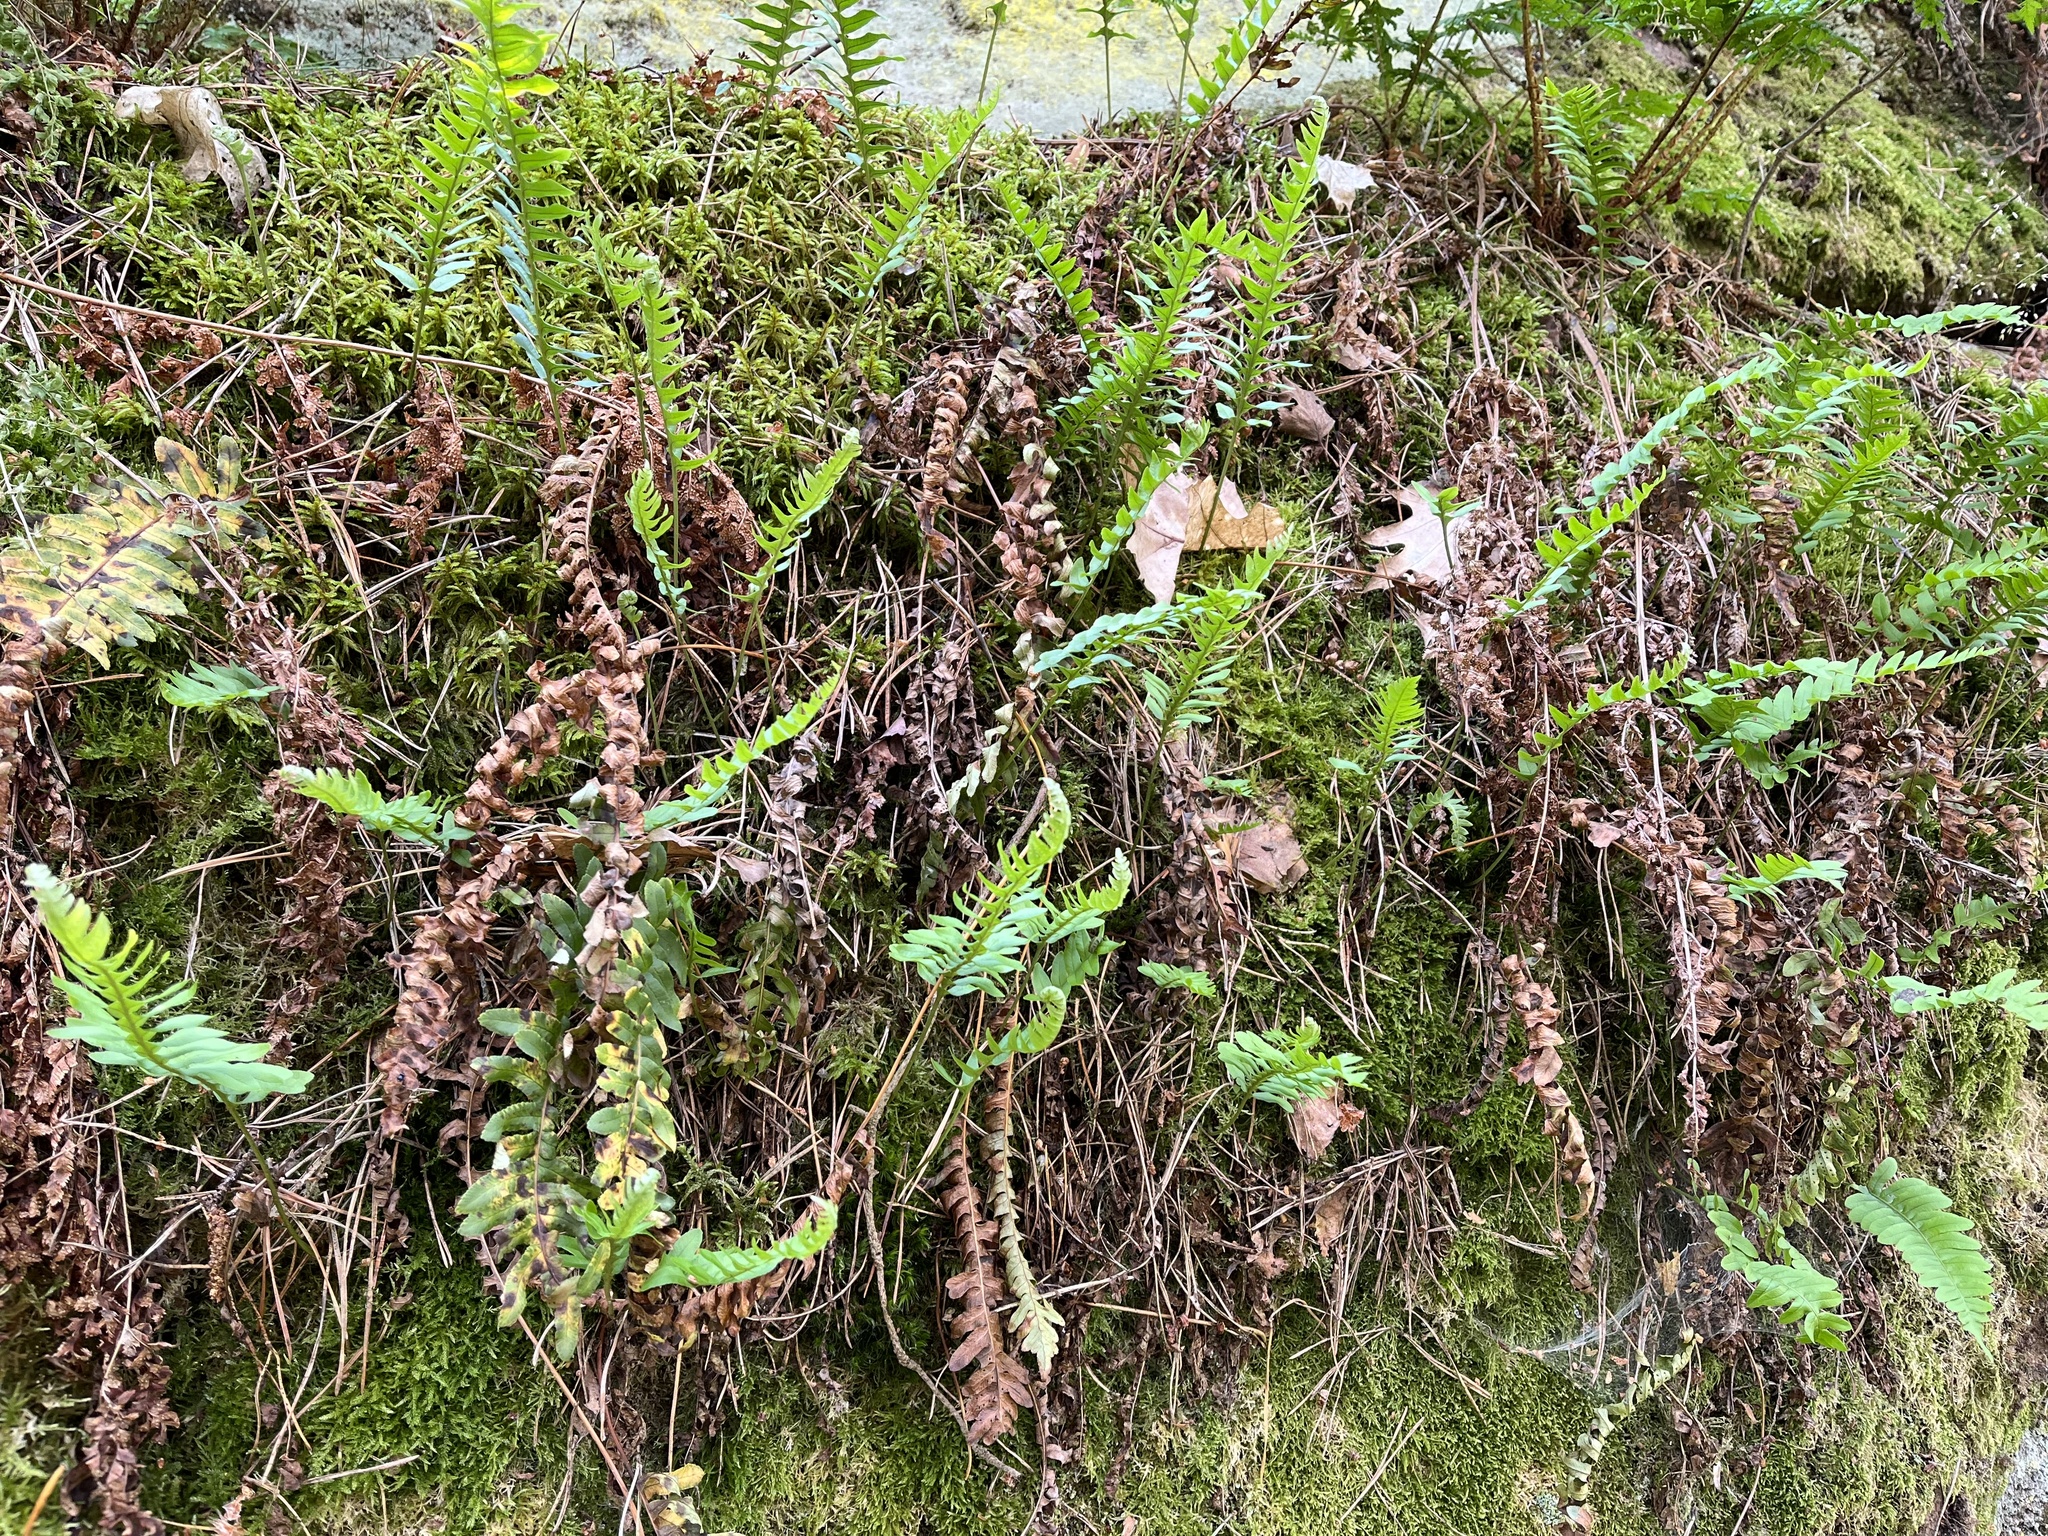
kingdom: Plantae
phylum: Tracheophyta
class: Polypodiopsida
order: Polypodiales
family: Polypodiaceae
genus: Polypodium
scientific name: Polypodium vulgare
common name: Common polypody
